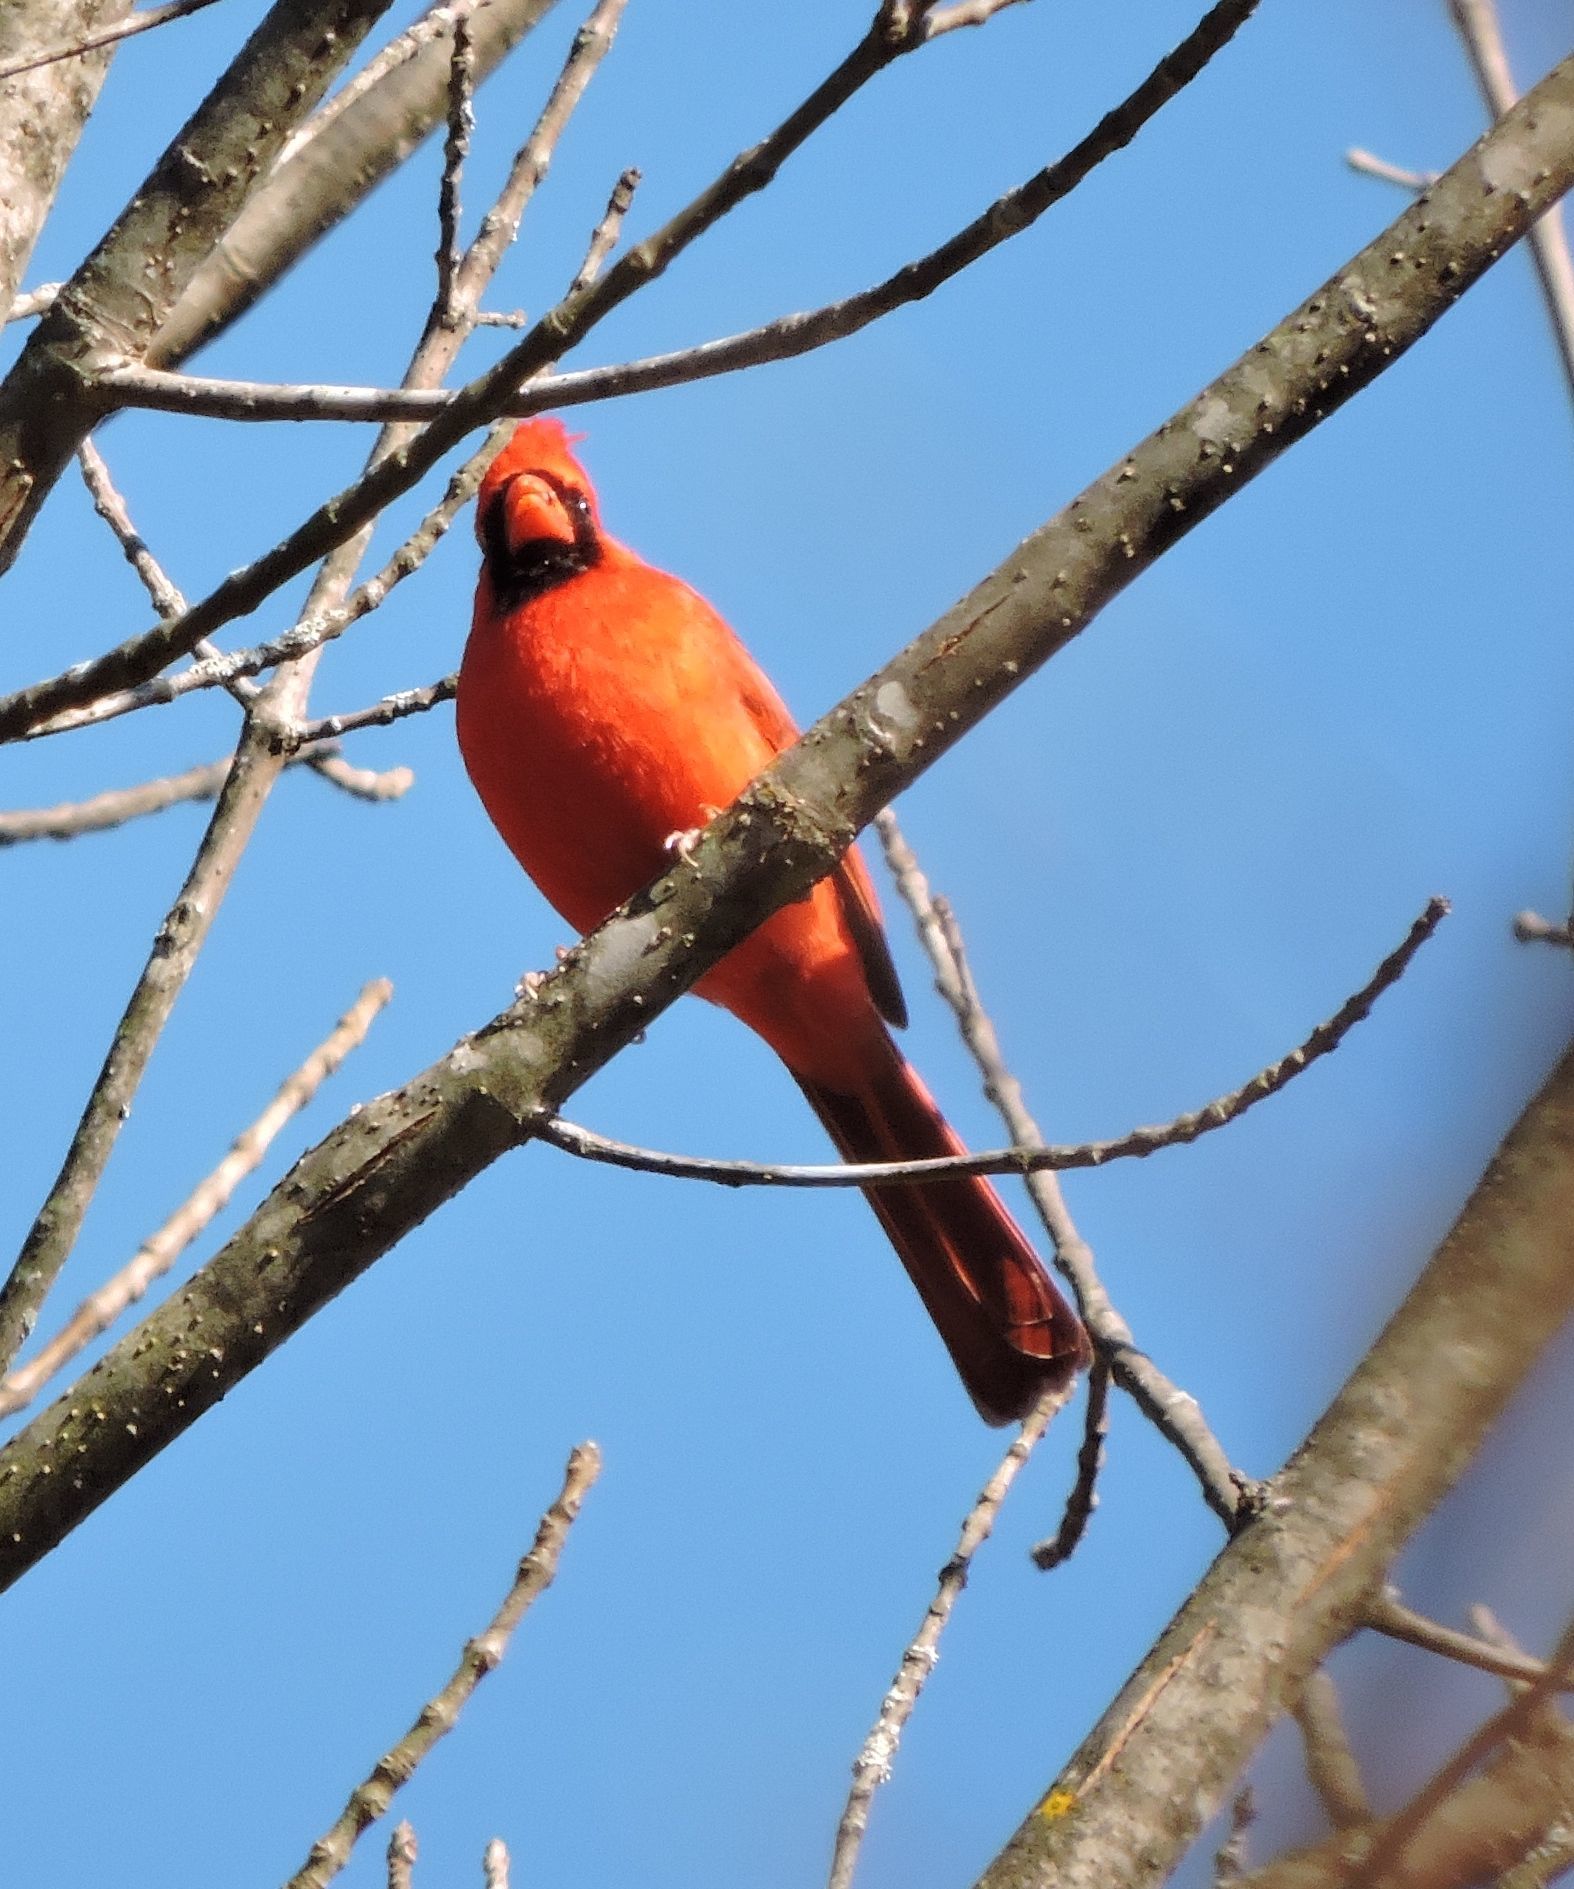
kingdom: Animalia
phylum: Chordata
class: Aves
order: Passeriformes
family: Cardinalidae
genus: Cardinalis
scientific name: Cardinalis cardinalis
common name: Northern cardinal
